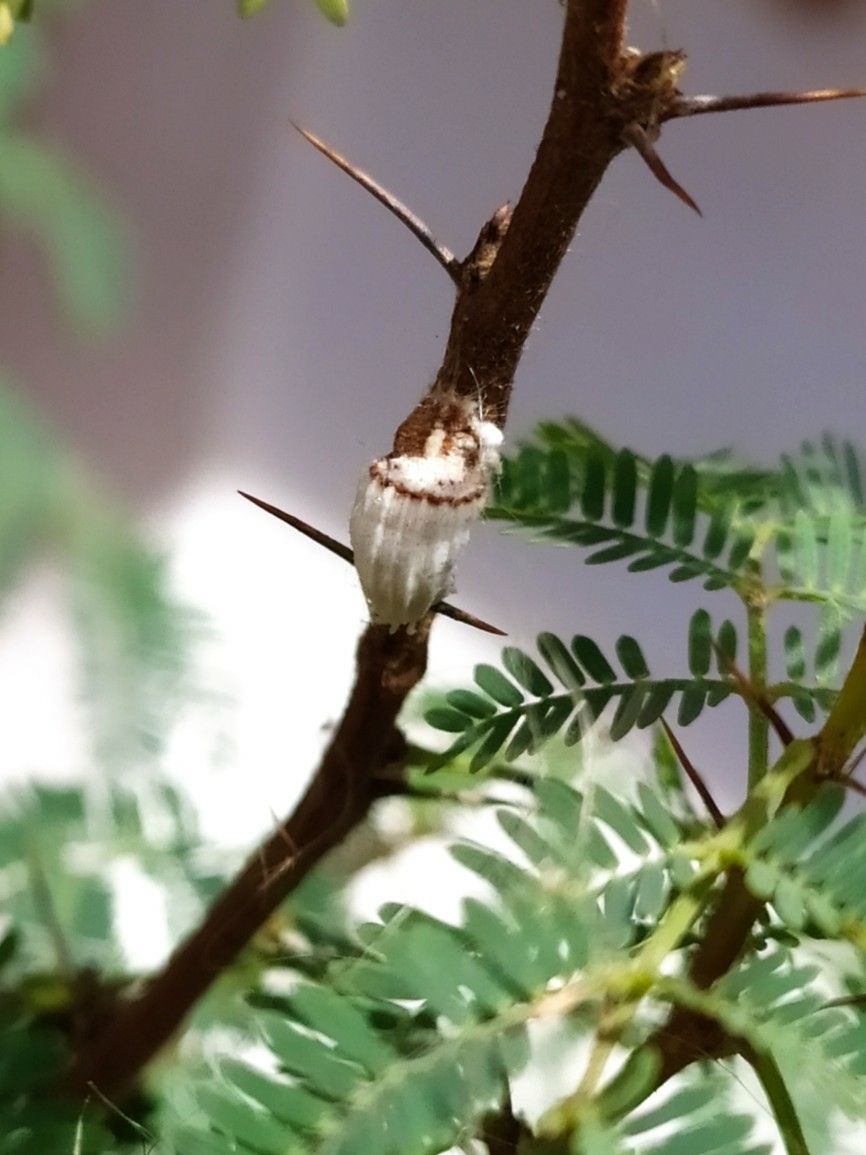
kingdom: Animalia
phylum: Arthropoda
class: Insecta
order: Hemiptera
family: Margarodidae
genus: Icerya
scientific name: Icerya purchasi
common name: Cottony cushion scale
